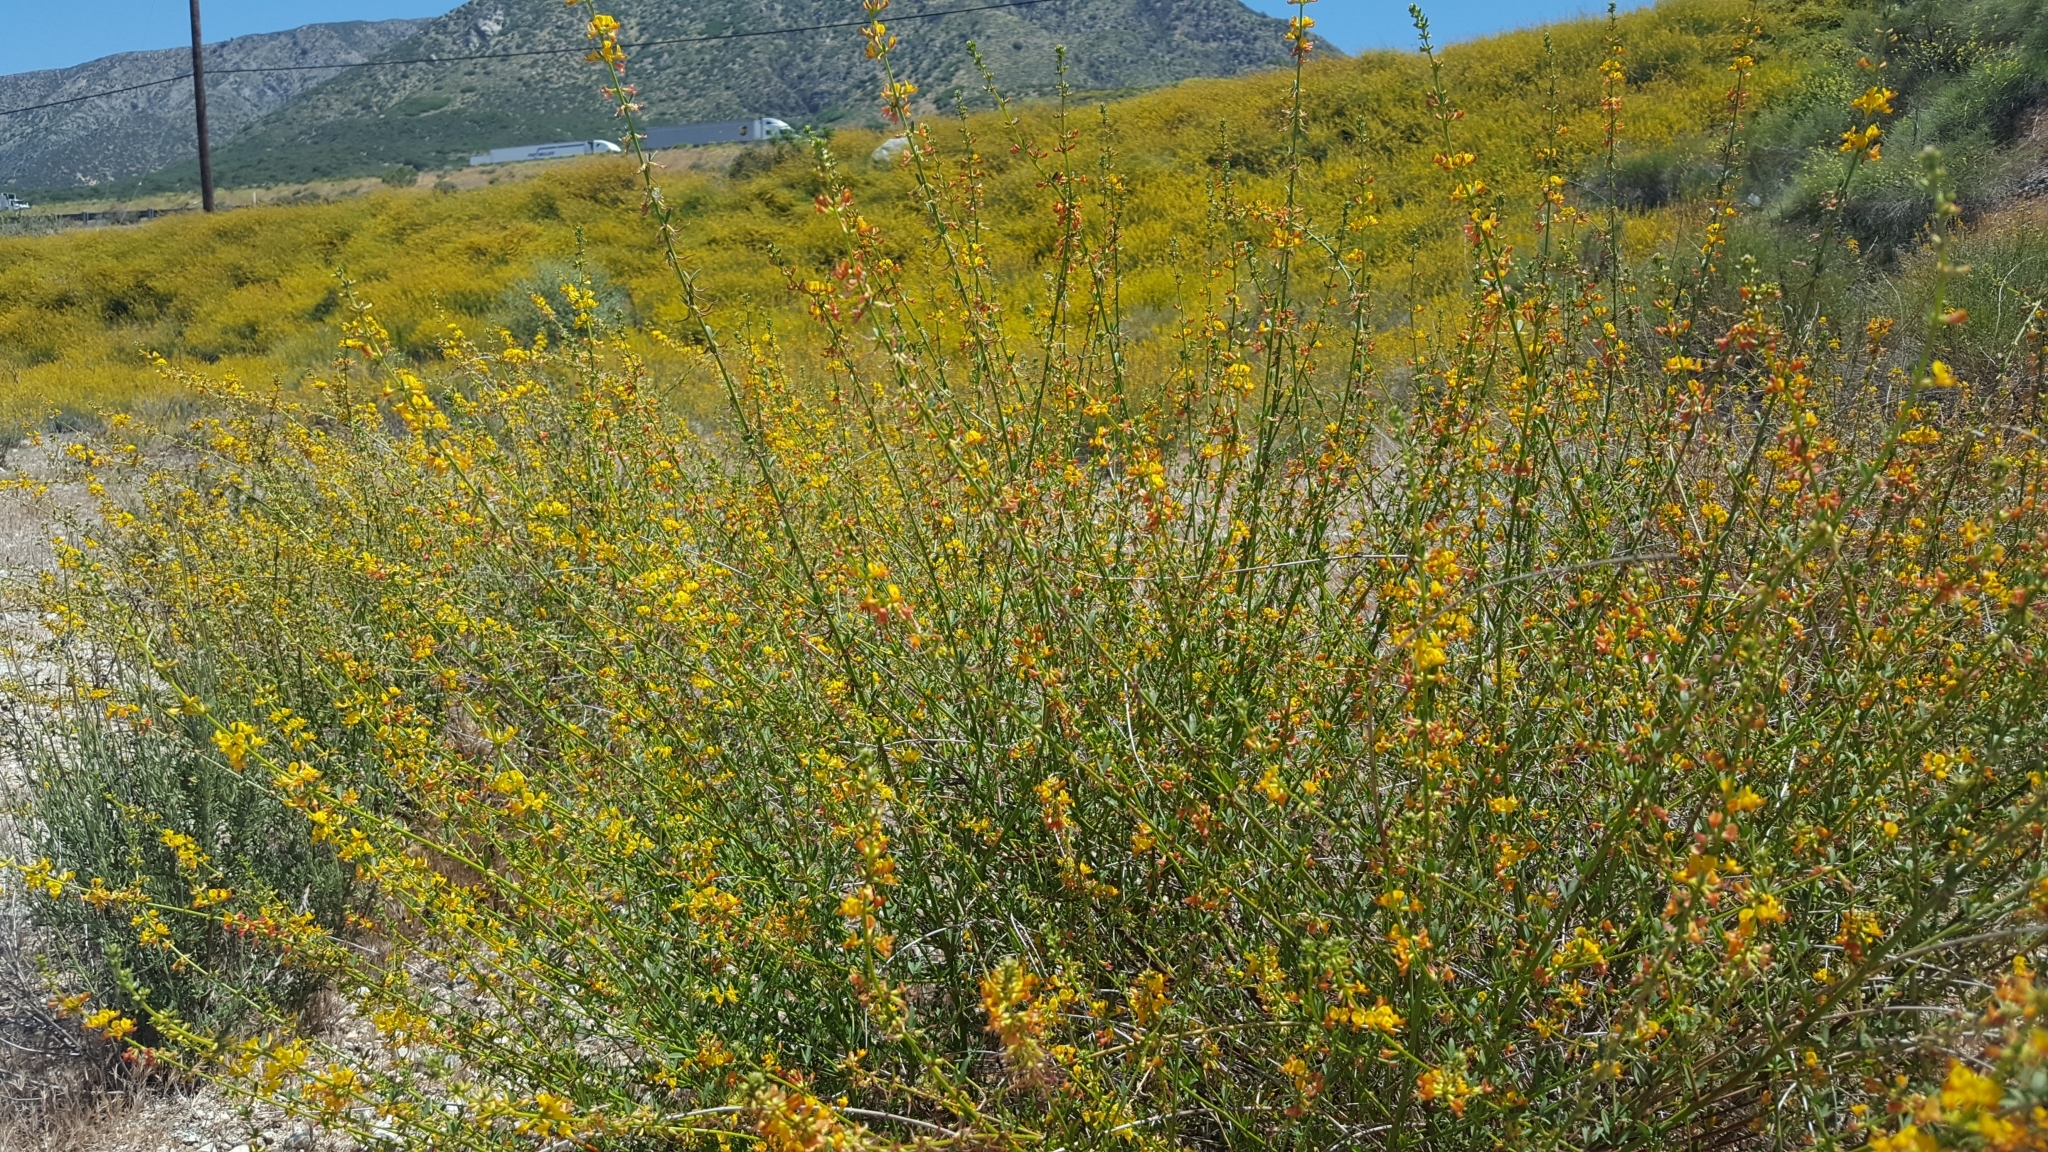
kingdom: Plantae
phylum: Tracheophyta
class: Magnoliopsida
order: Fabales
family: Fabaceae
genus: Acmispon
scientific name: Acmispon glaber
